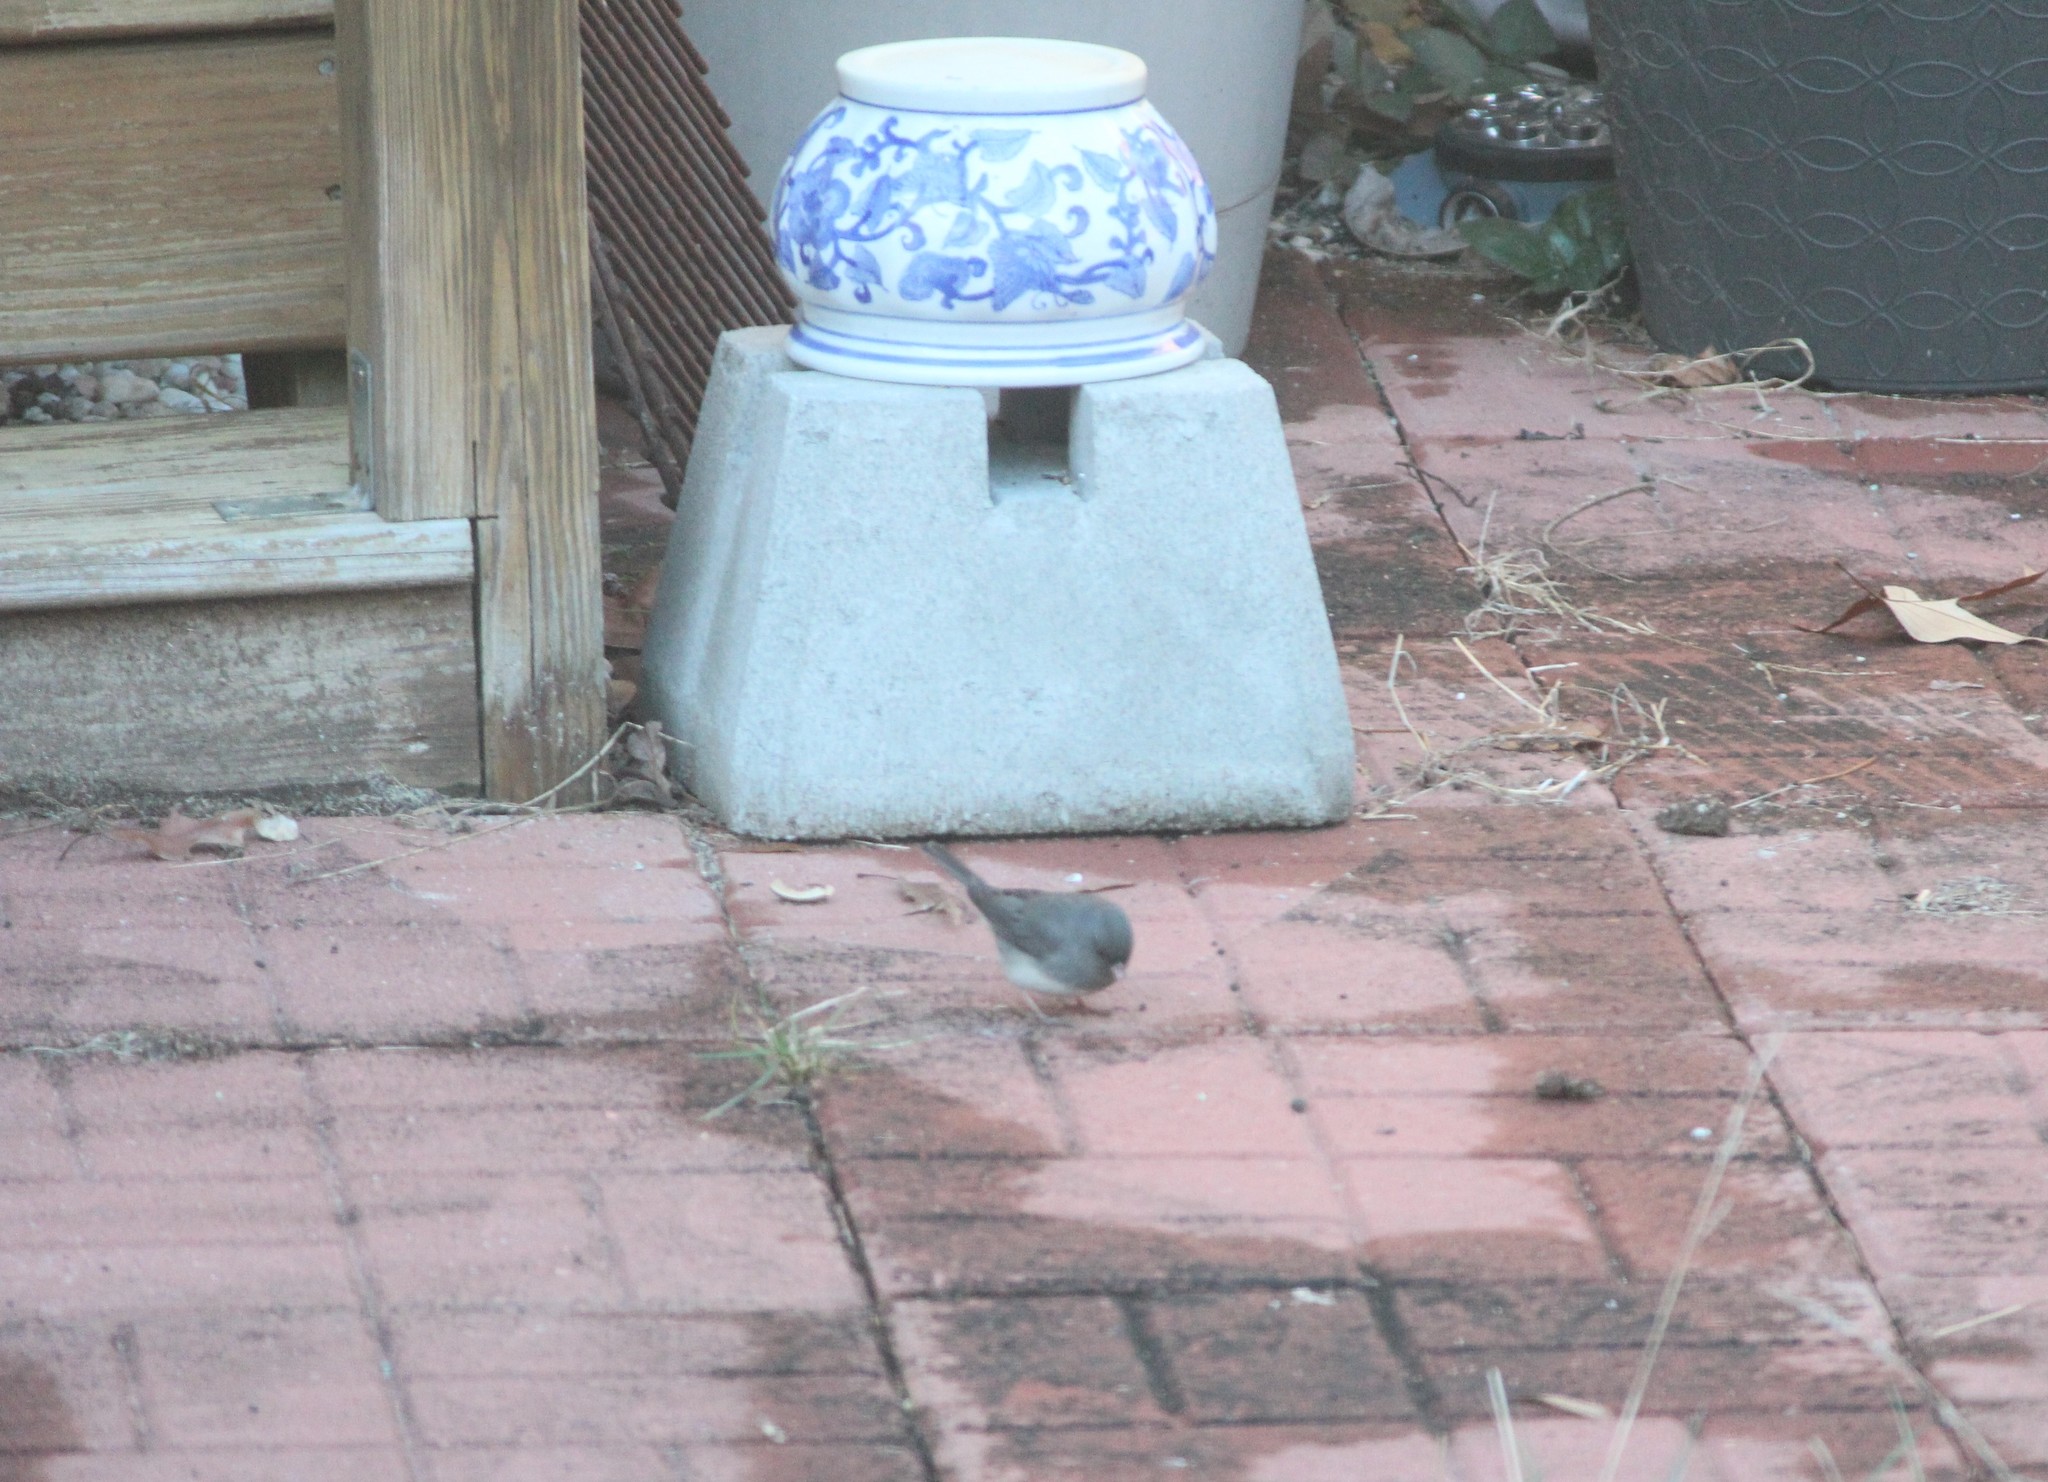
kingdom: Animalia
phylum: Chordata
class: Aves
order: Passeriformes
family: Passerellidae
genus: Junco
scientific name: Junco hyemalis
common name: Dark-eyed junco
